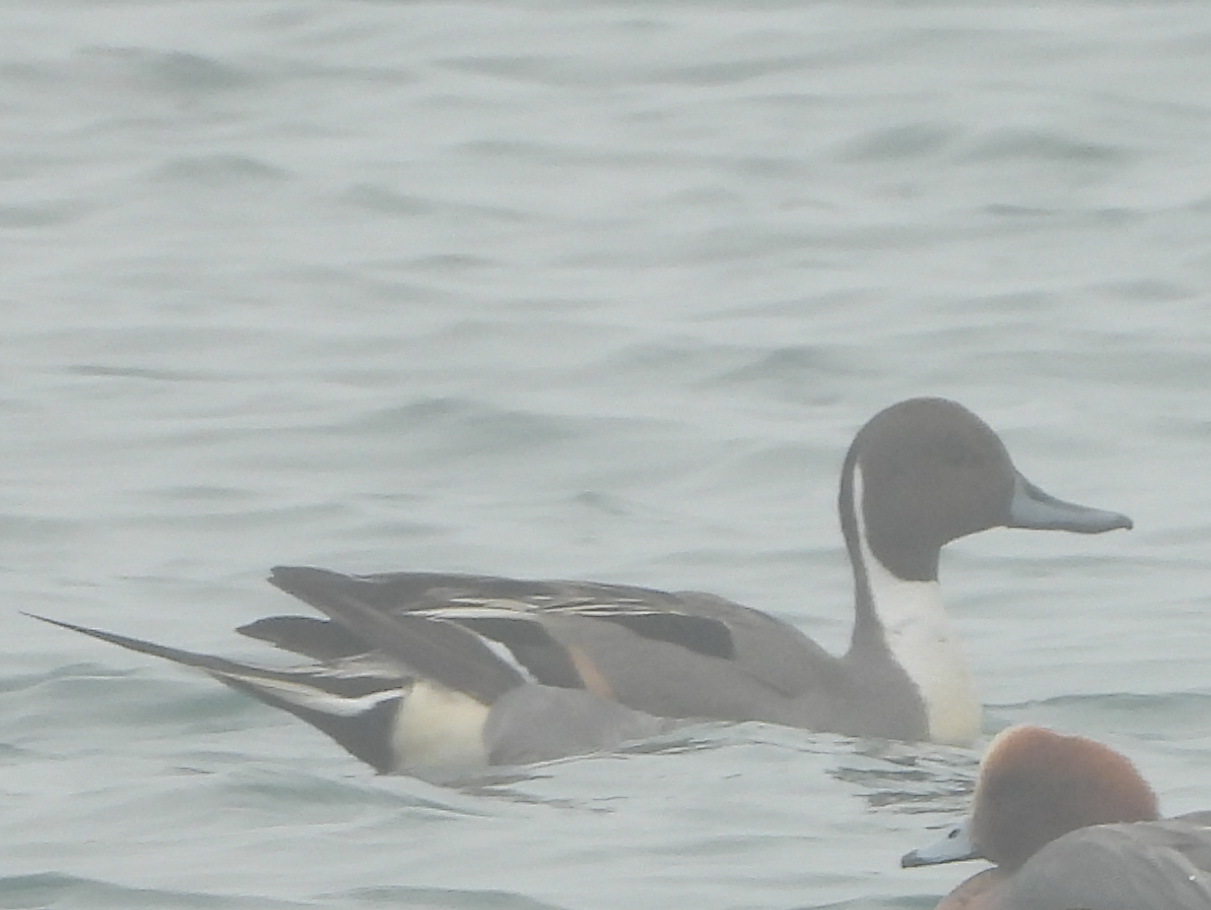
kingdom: Animalia
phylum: Chordata
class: Aves
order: Anseriformes
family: Anatidae
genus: Anas
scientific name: Anas acuta
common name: Northern pintail
